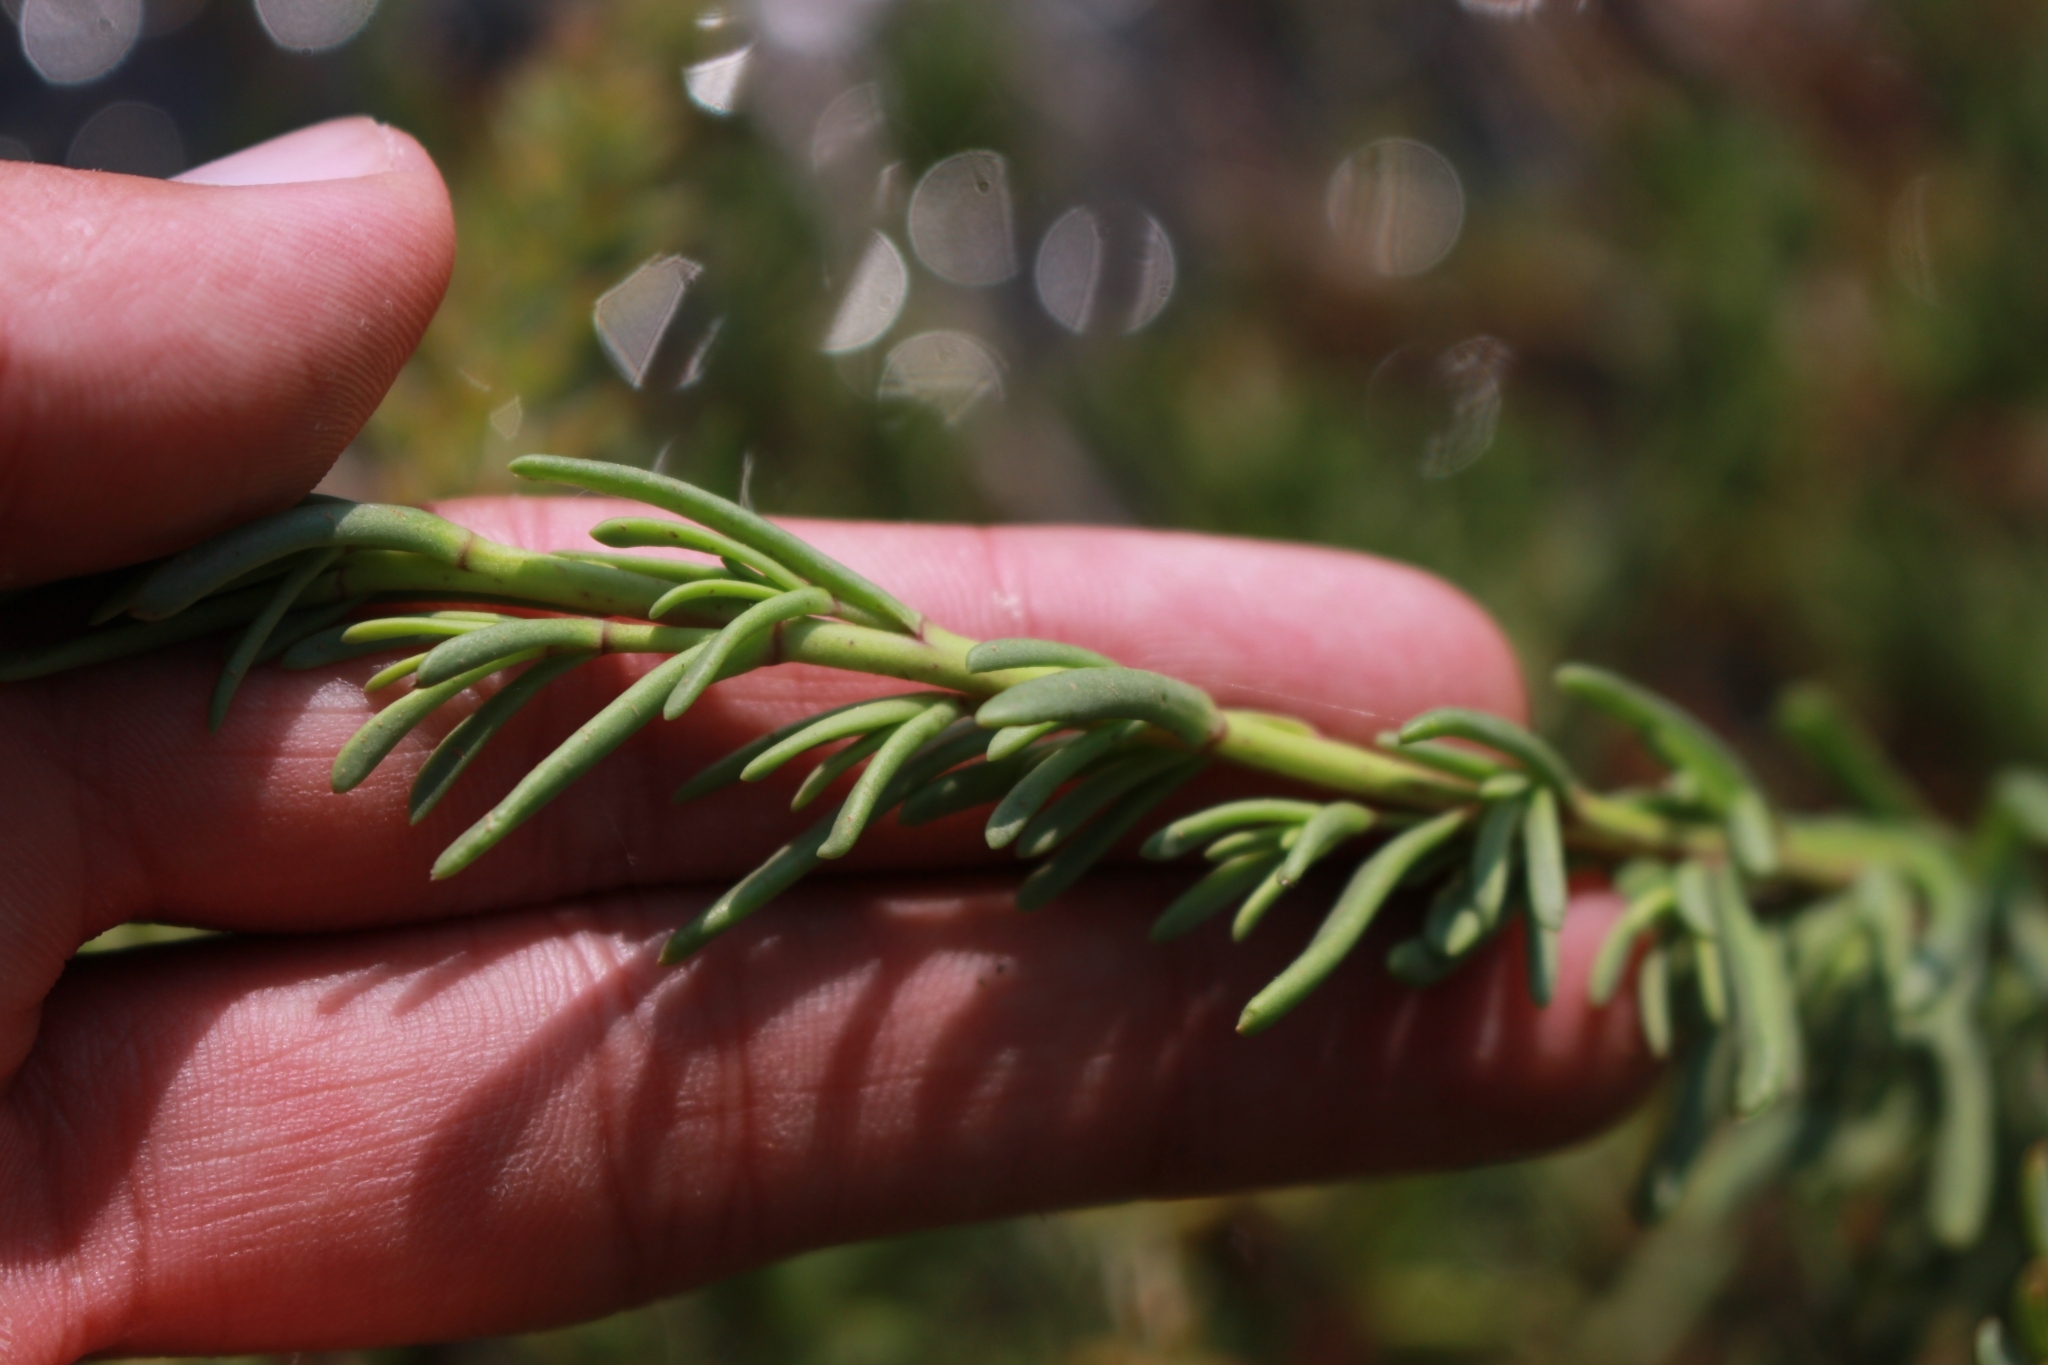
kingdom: Plantae
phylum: Tracheophyta
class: Magnoliopsida
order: Asterales
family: Asteraceae
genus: Limbarda
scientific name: Limbarda crithmoides
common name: Golden samphire
